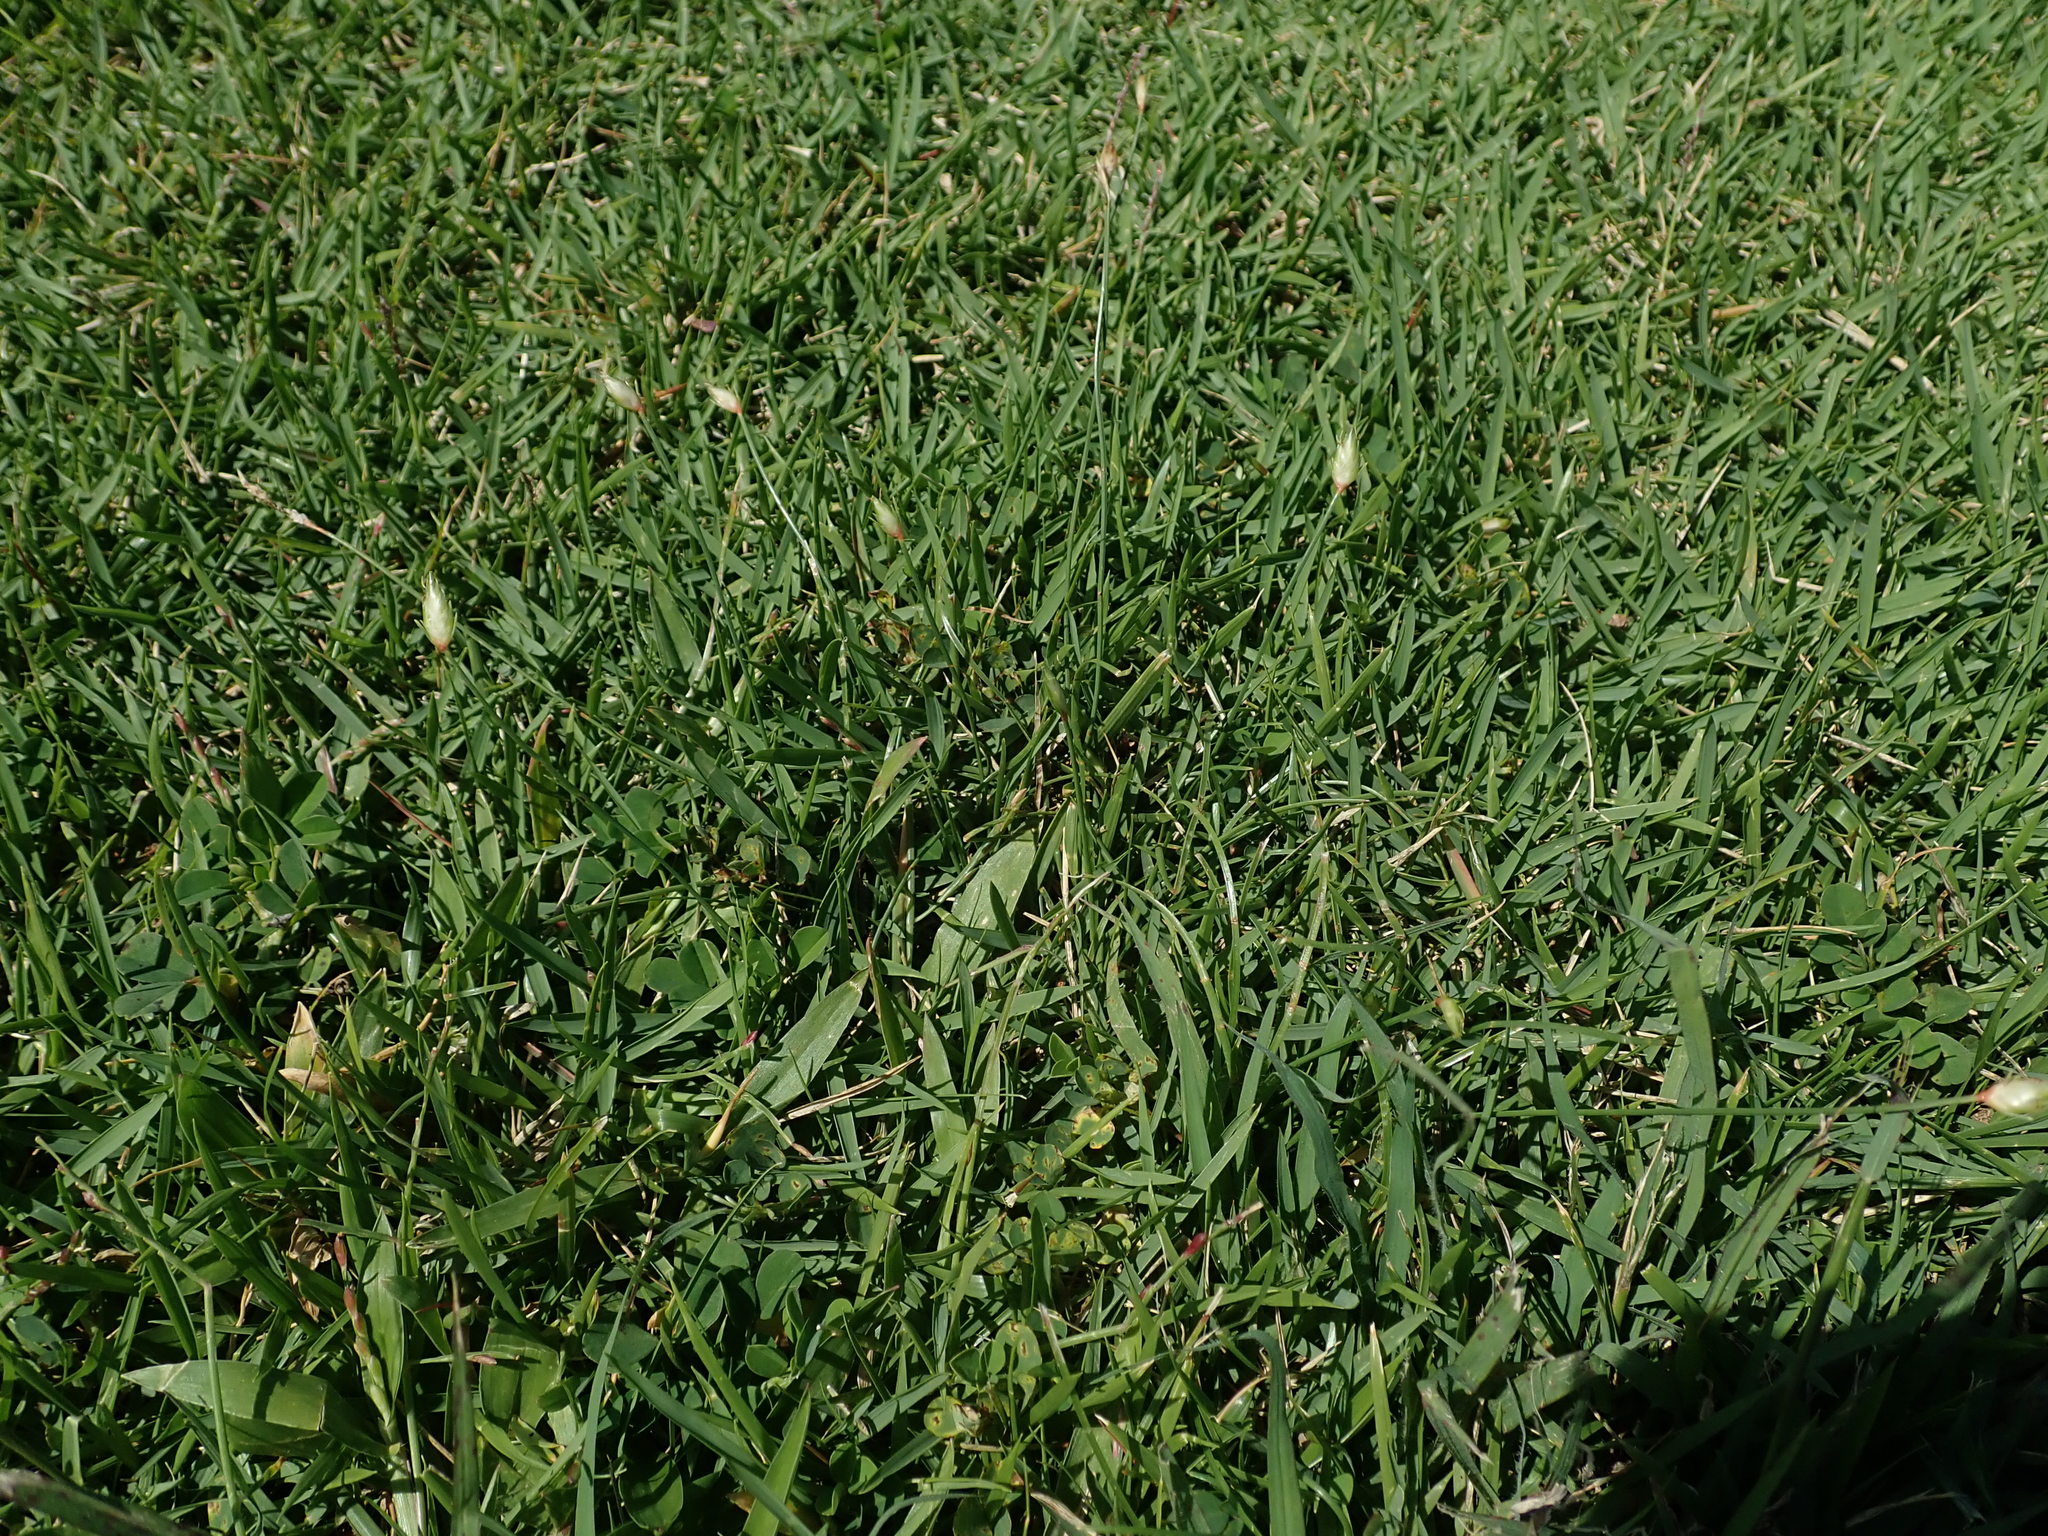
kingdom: Plantae
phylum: Tracheophyta
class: Liliopsida
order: Poales
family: Cyperaceae
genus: Abildgaardia
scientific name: Abildgaardia ovata
